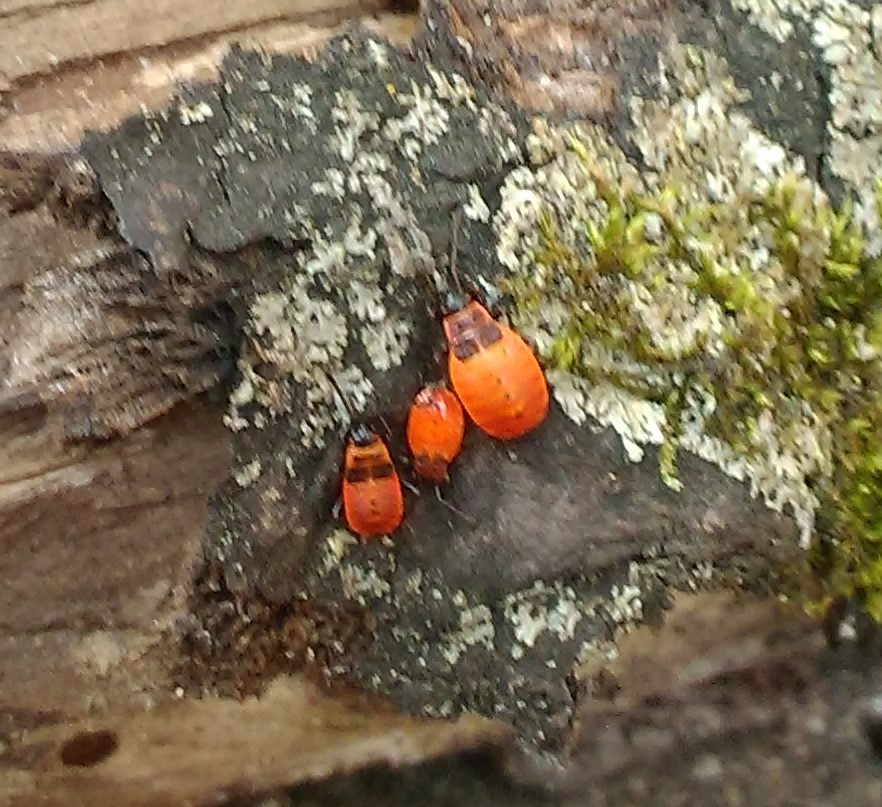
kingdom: Animalia
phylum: Arthropoda
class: Insecta
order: Hemiptera
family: Pyrrhocoridae
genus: Pyrrhocoris
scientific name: Pyrrhocoris apterus
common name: Firebug
